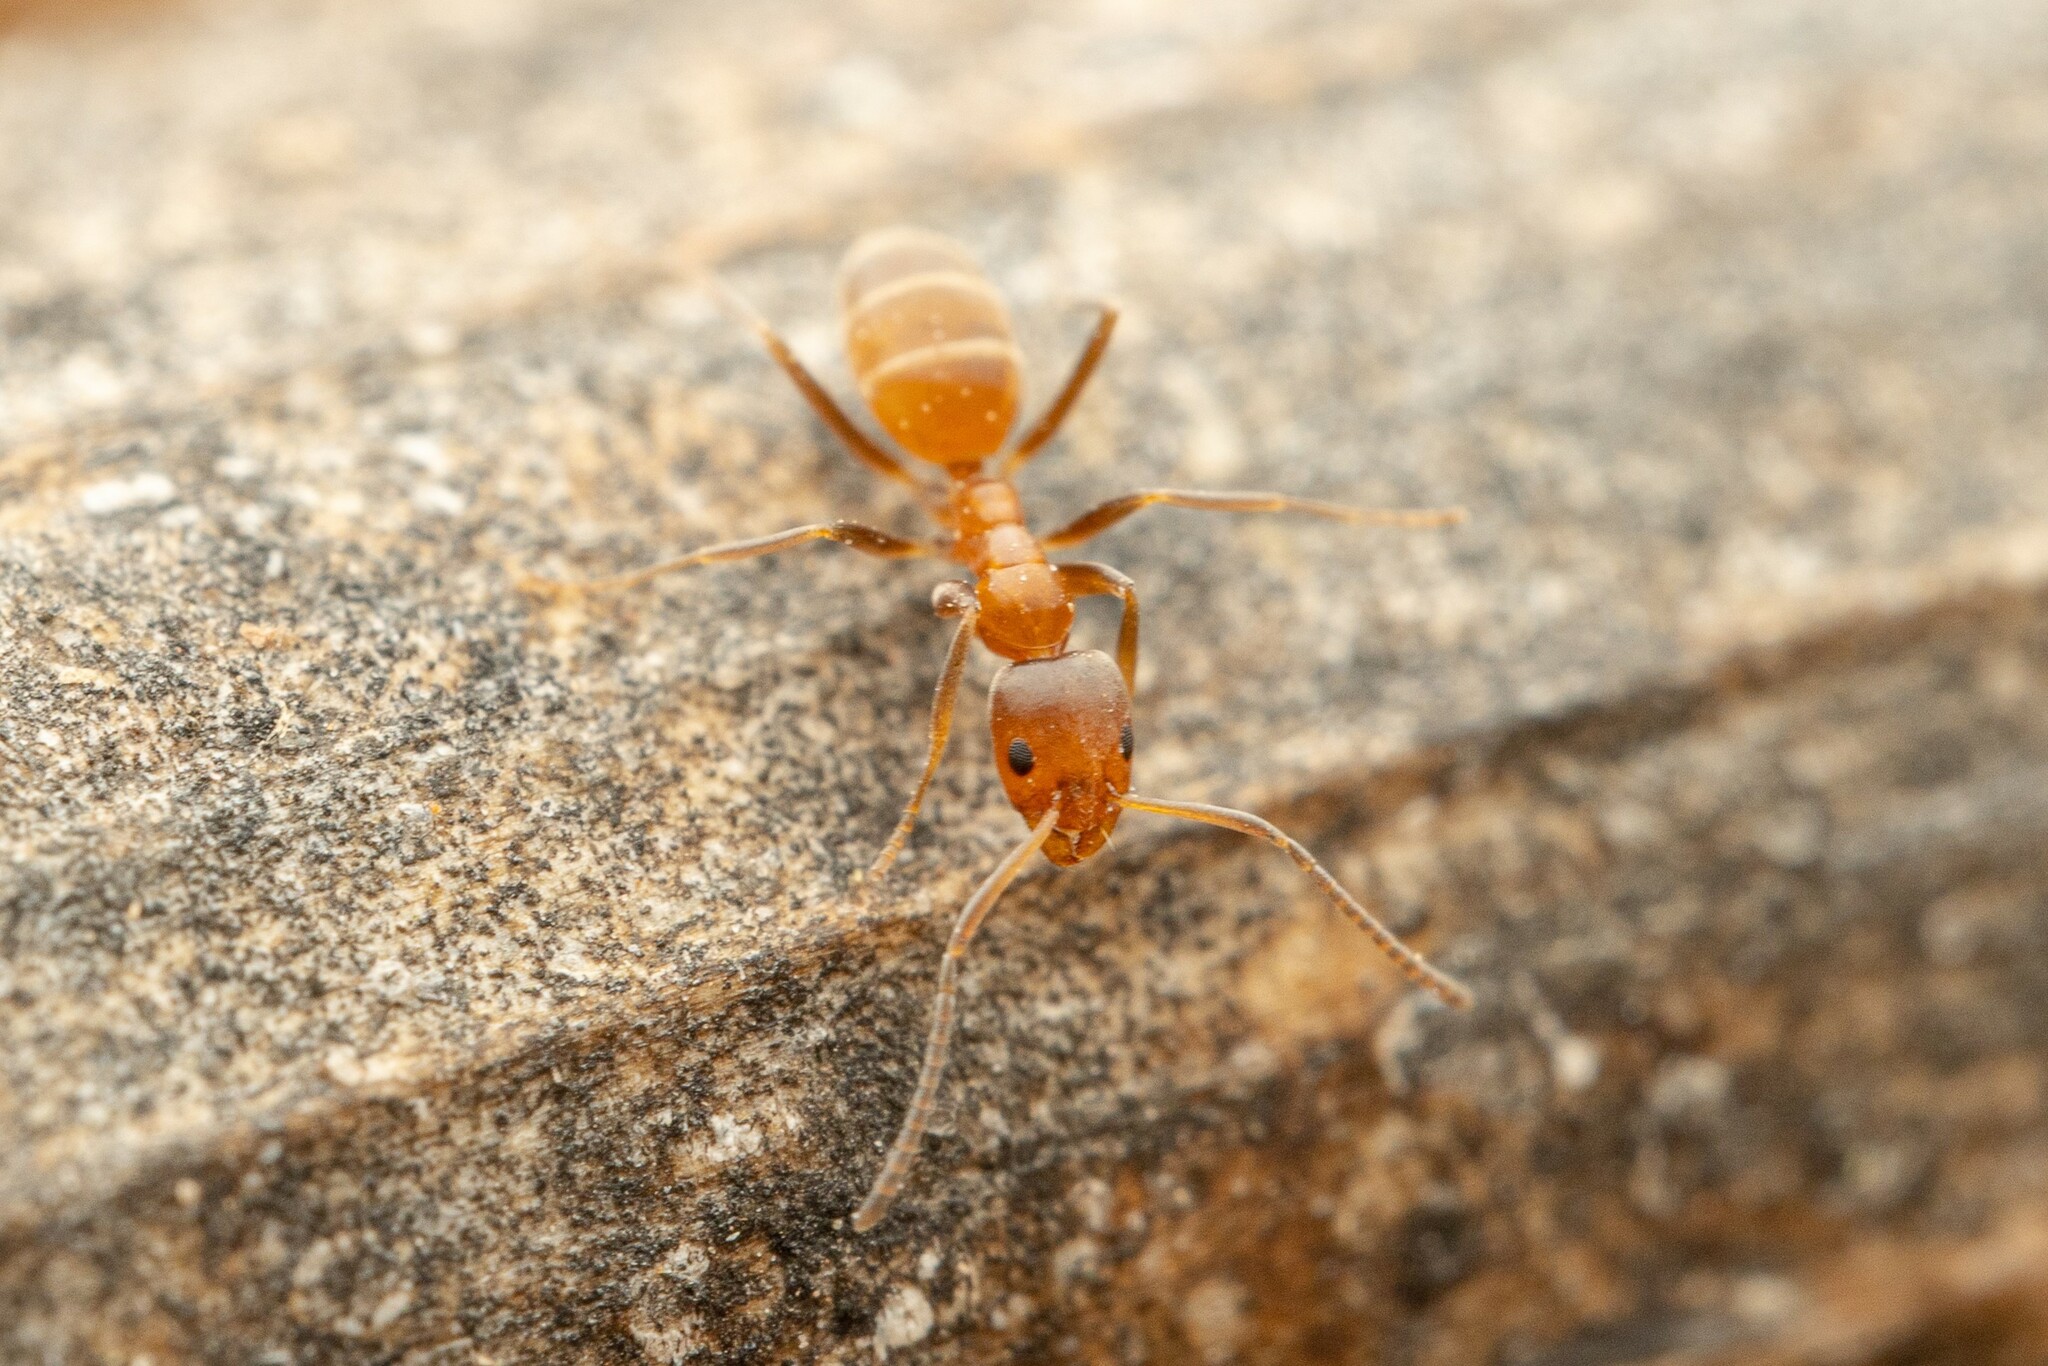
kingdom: Animalia
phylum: Arthropoda
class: Insecta
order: Hymenoptera
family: Formicidae
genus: Forelius
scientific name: Forelius pruinosus
